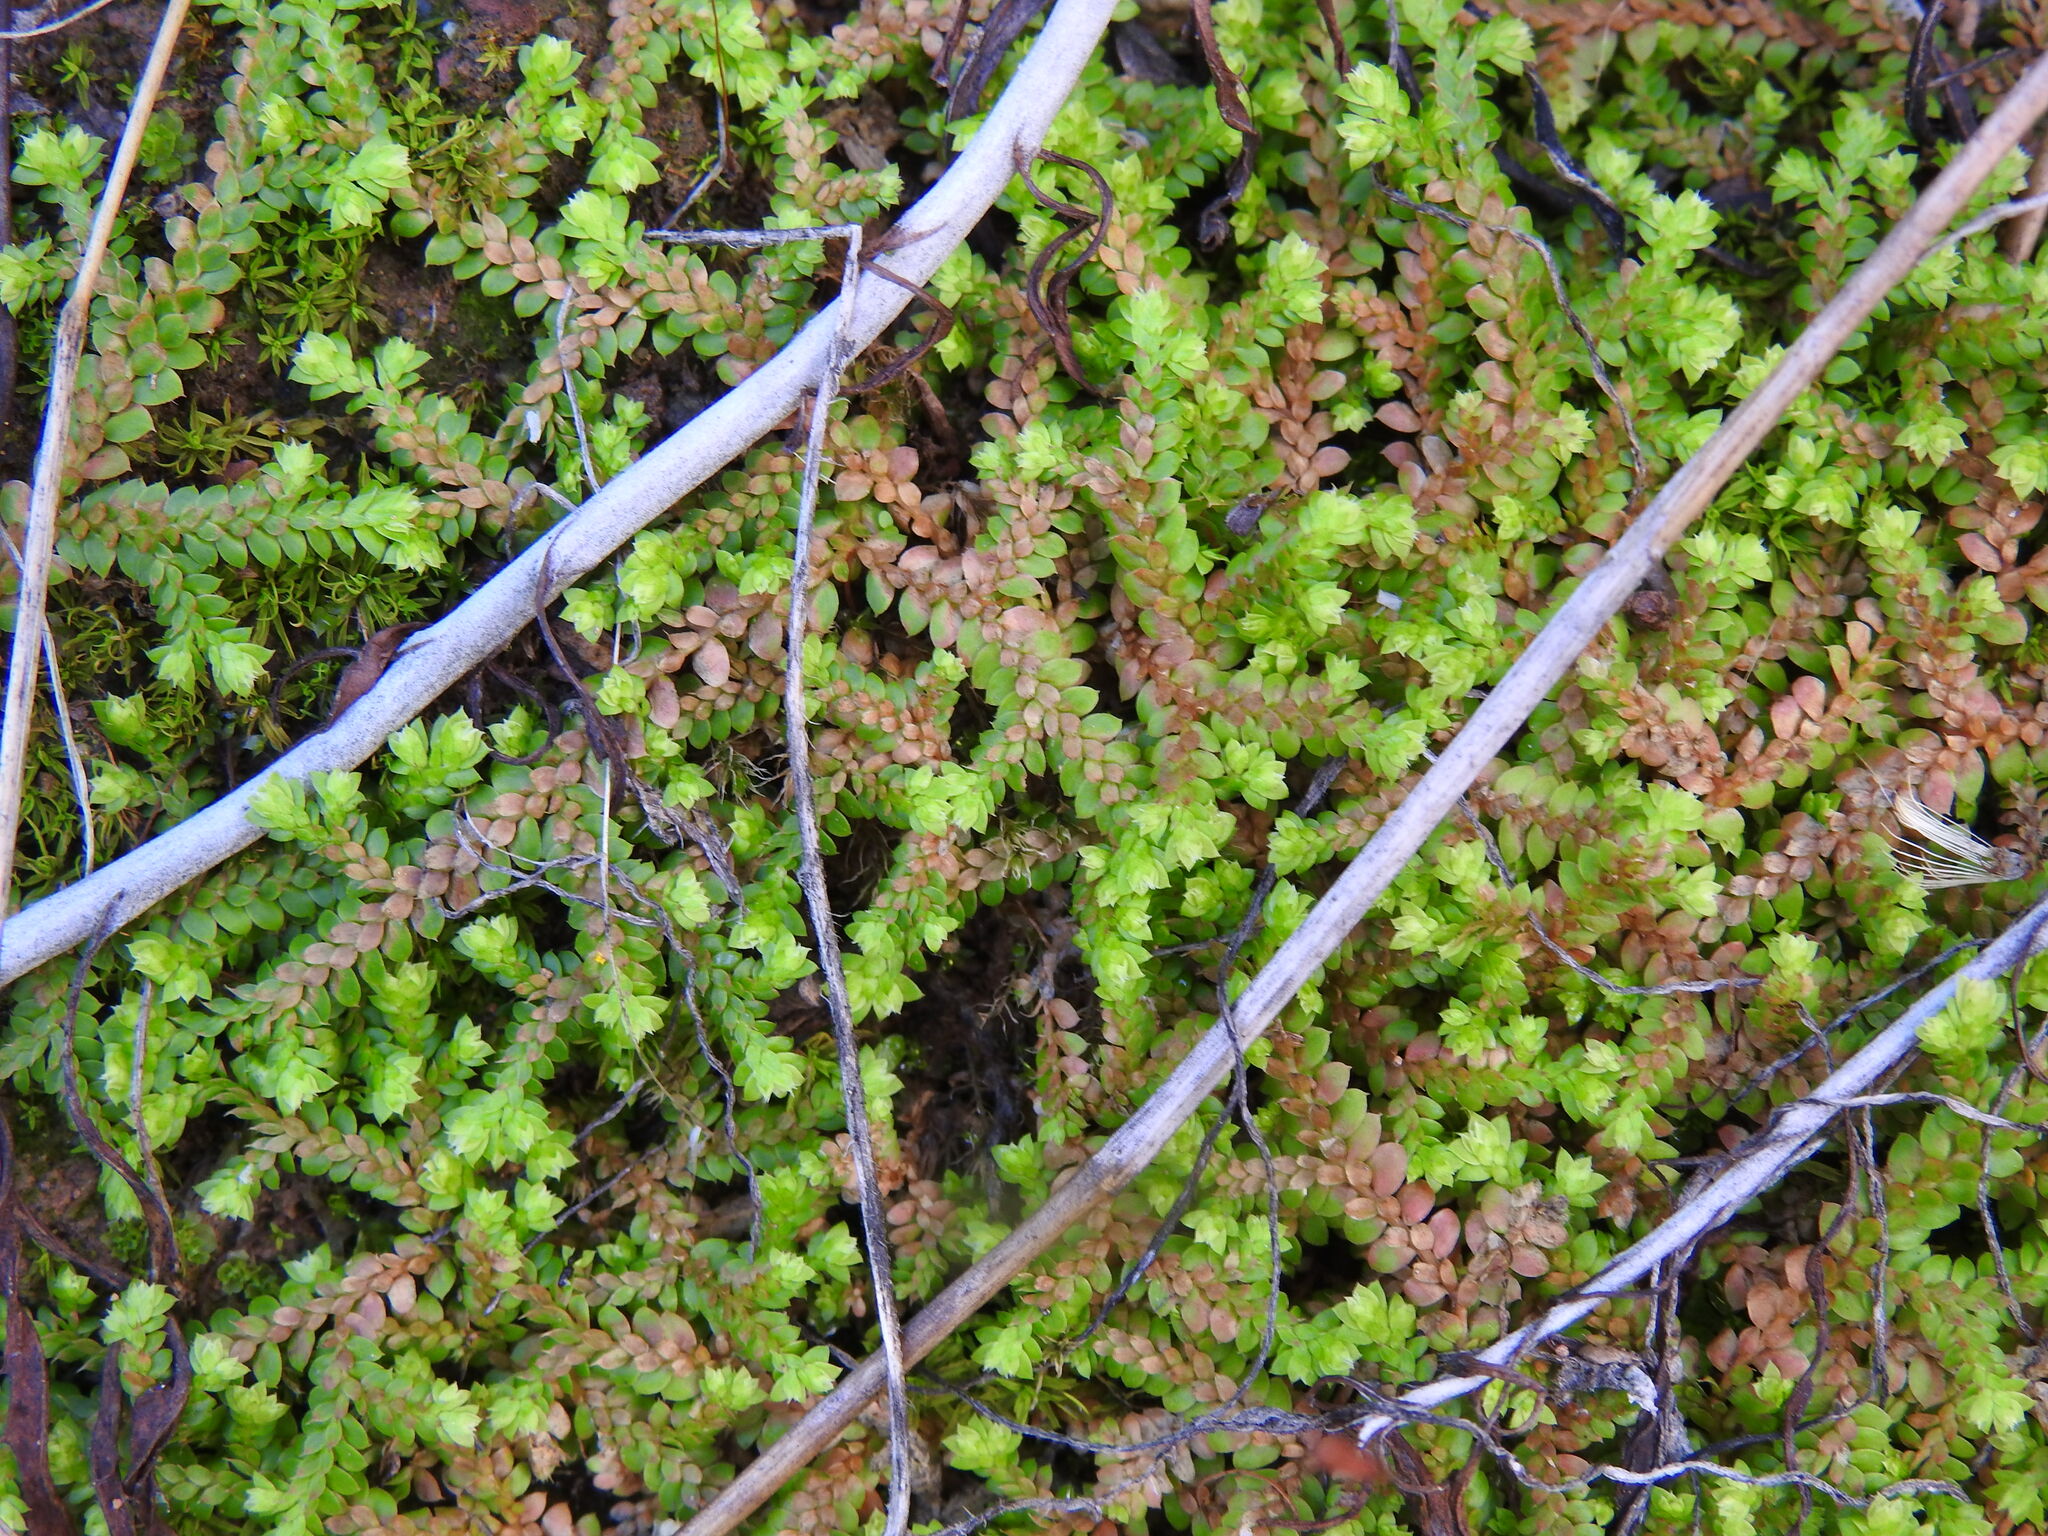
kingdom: Plantae
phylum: Tracheophyta
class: Lycopodiopsida
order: Selaginellales
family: Selaginellaceae
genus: Selaginella
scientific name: Selaginella denticulata
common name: Toothed-leaved clubmoss
